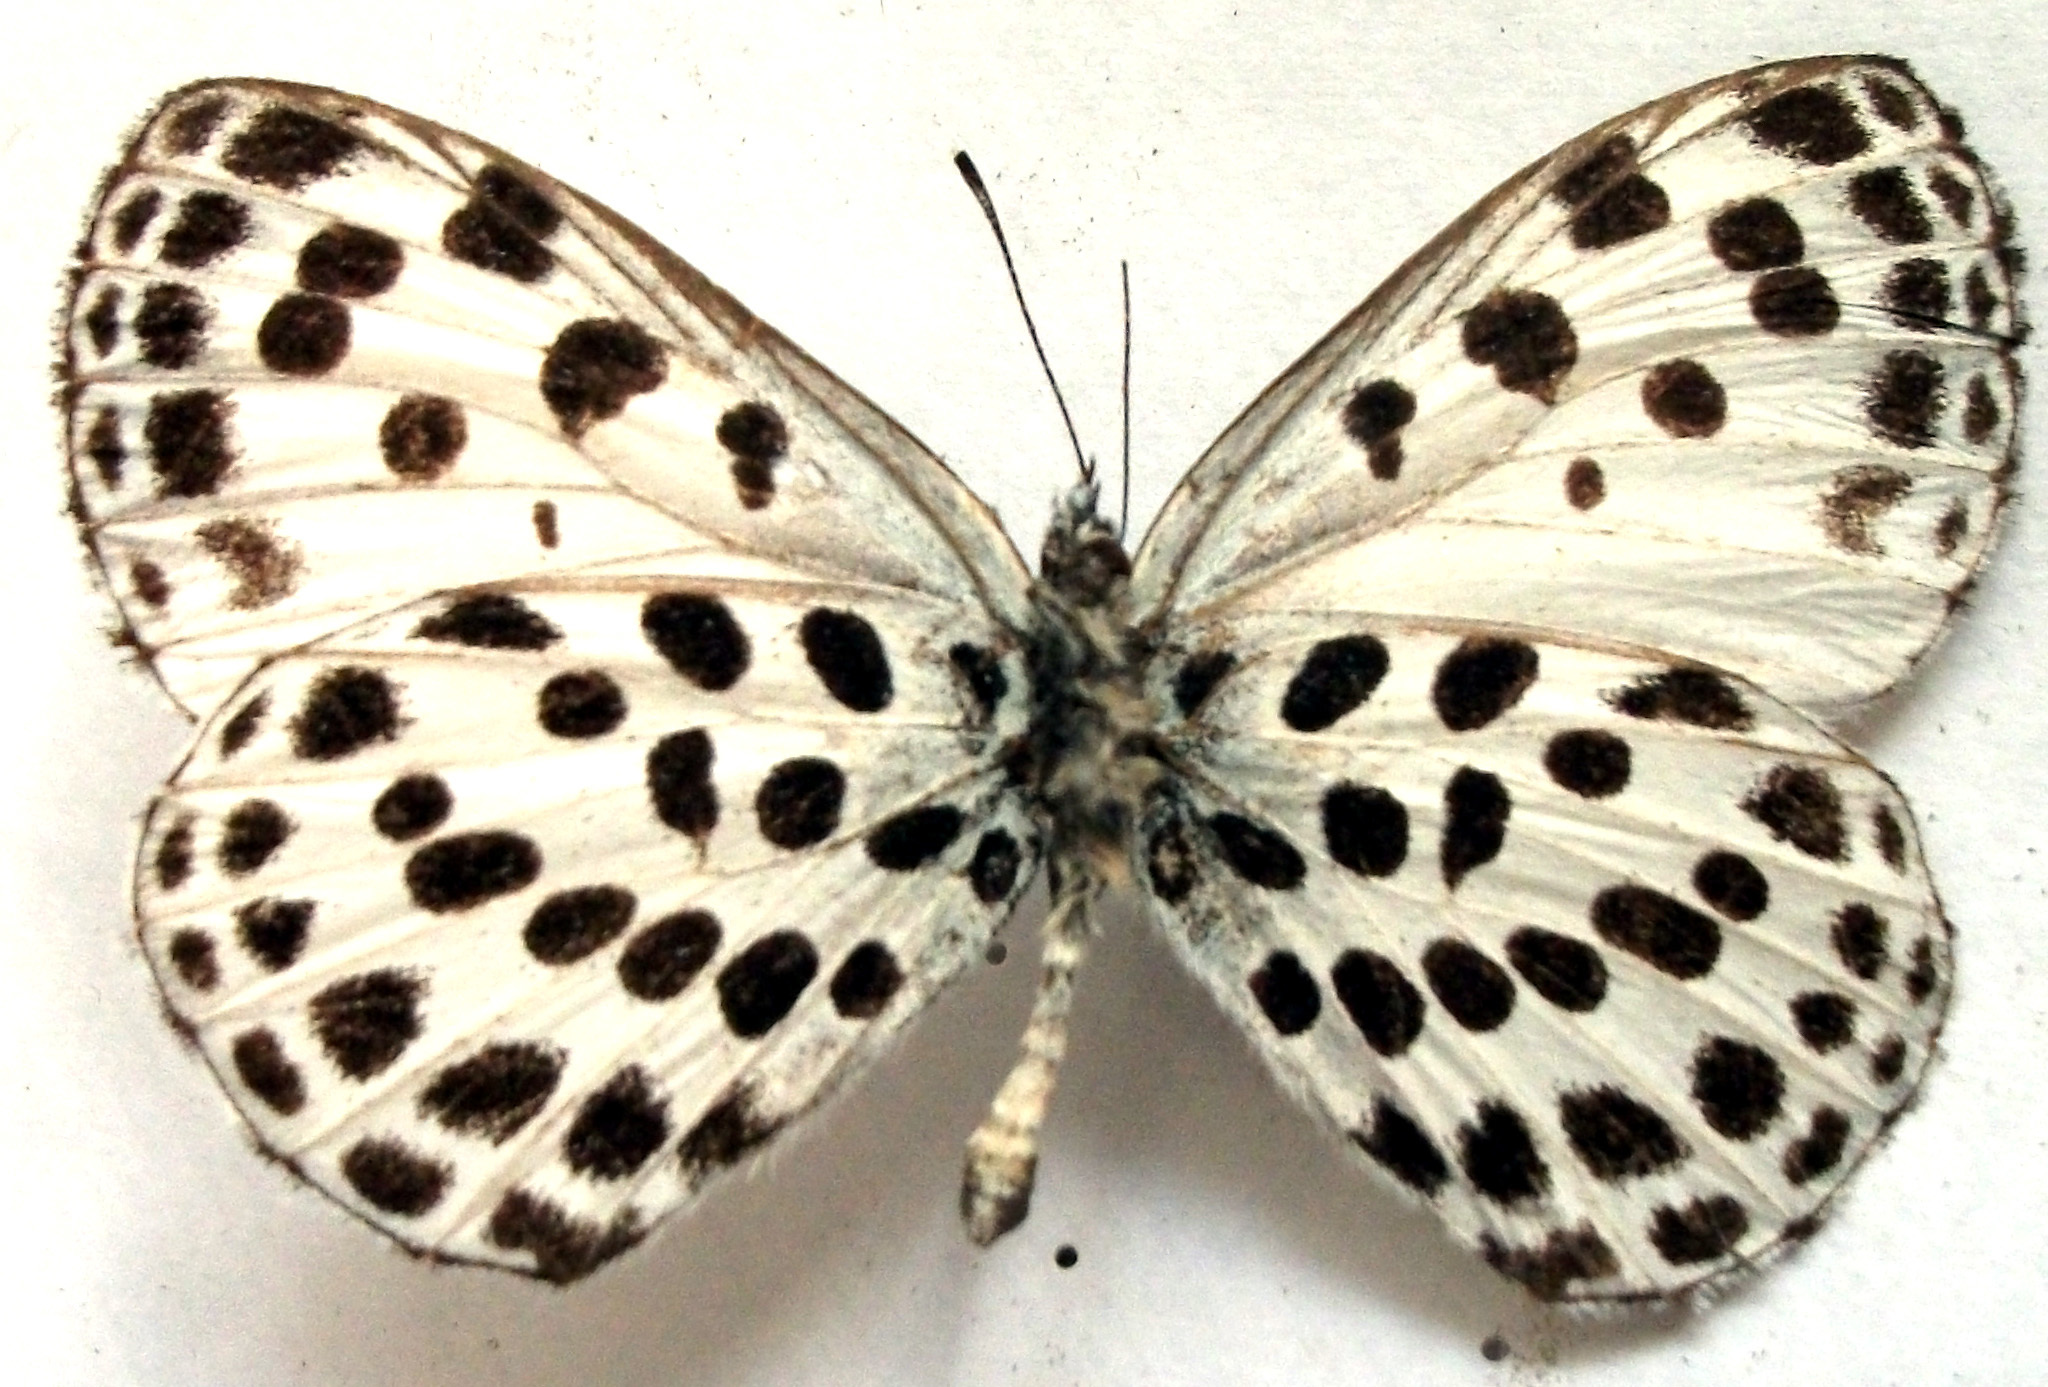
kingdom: Animalia
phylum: Arthropoda
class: Insecta
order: Lepidoptera
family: Lycaenidae
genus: Phengaris
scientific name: Phengaris atroguttata
